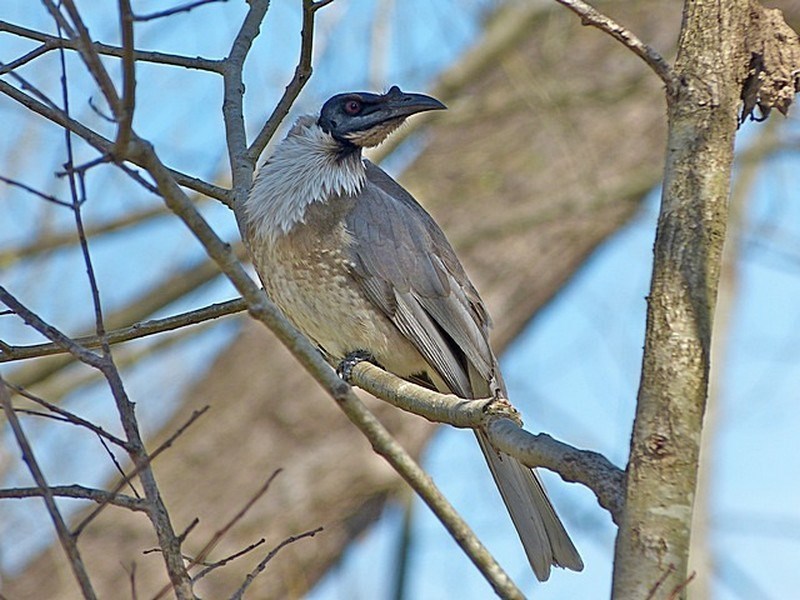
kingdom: Animalia
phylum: Chordata
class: Aves
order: Passeriformes
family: Meliphagidae
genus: Philemon
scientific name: Philemon corniculatus
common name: Noisy friarbird
